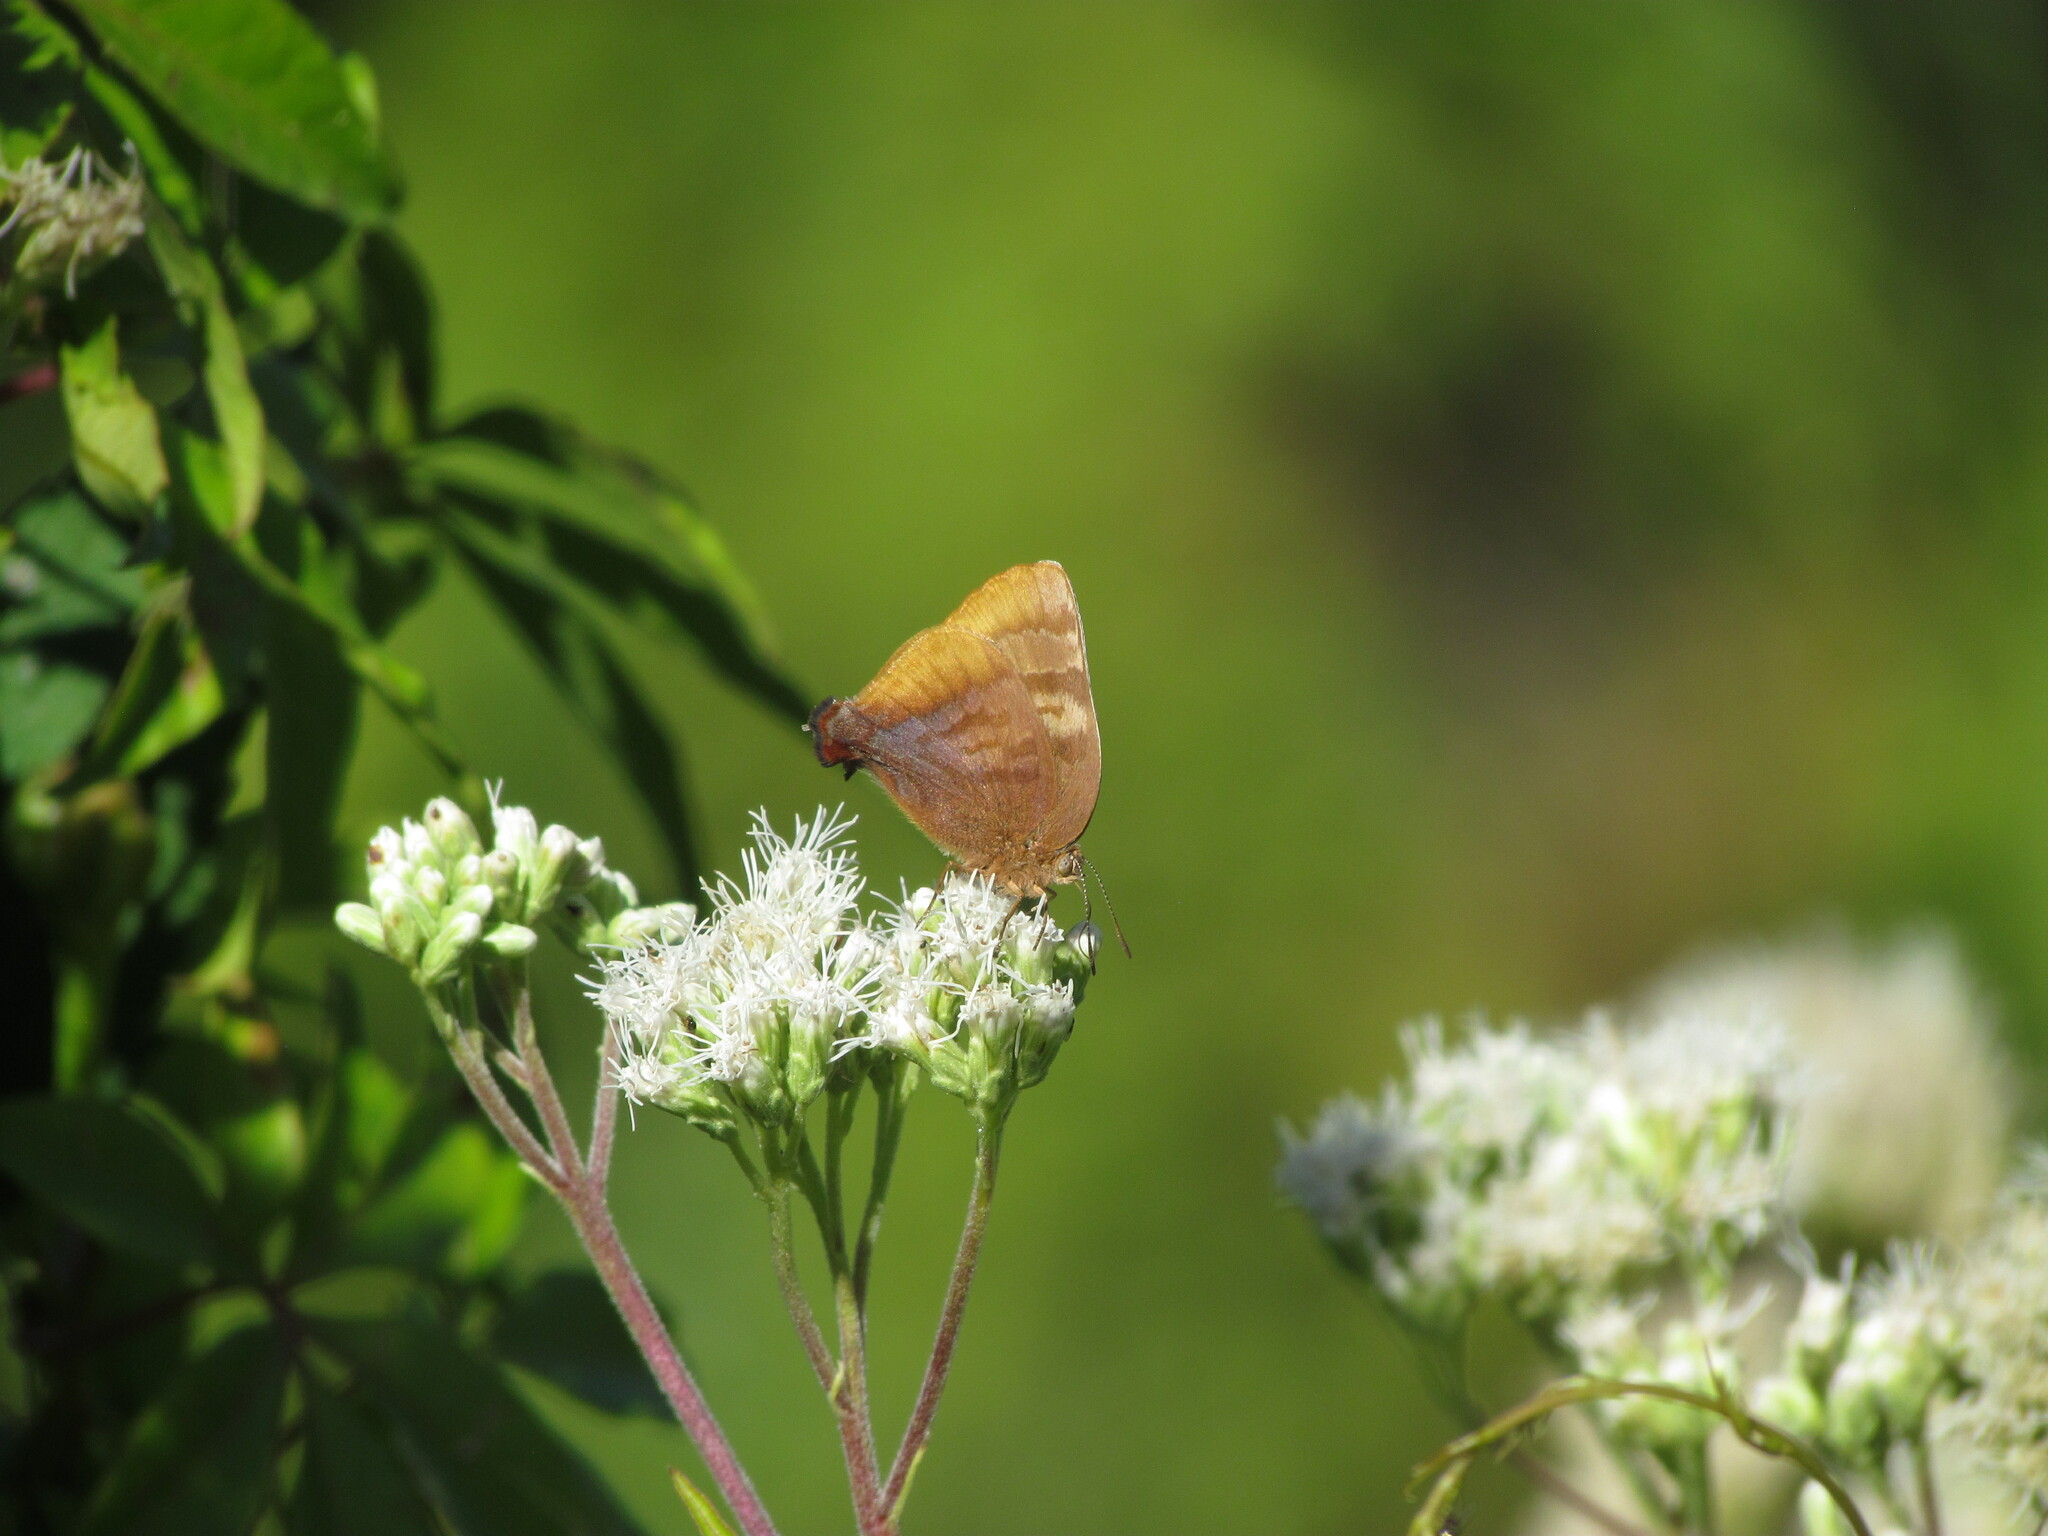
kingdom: Animalia
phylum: Arthropoda
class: Insecta
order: Lepidoptera
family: Lycaenidae
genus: Thecla
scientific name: Thecla marius
